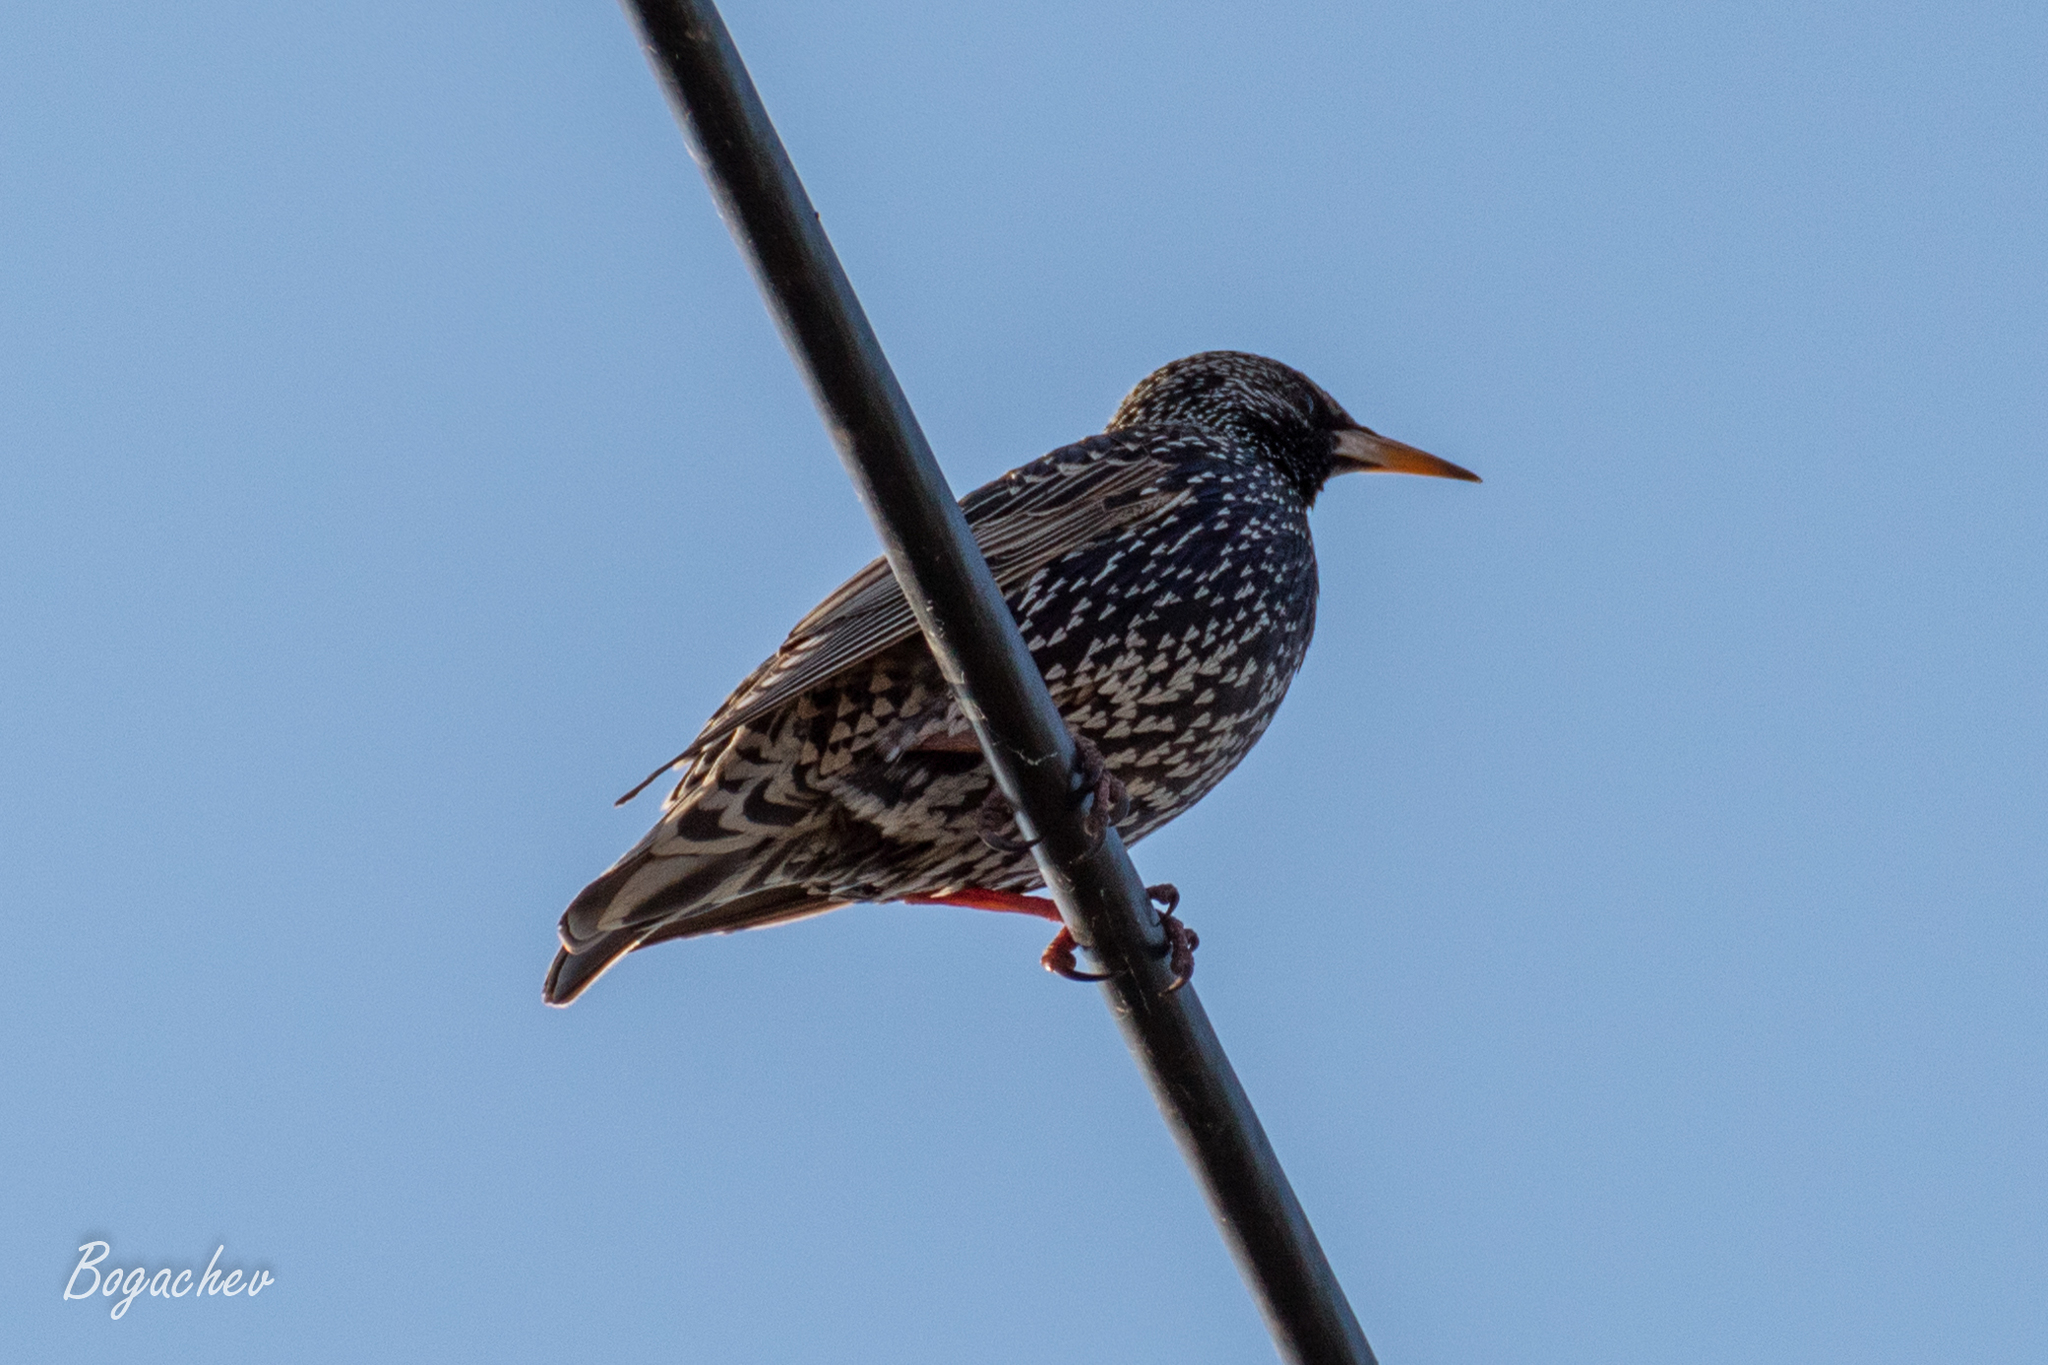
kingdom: Animalia
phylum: Chordata
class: Aves
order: Passeriformes
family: Sturnidae
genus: Sturnus
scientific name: Sturnus vulgaris
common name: Common starling
